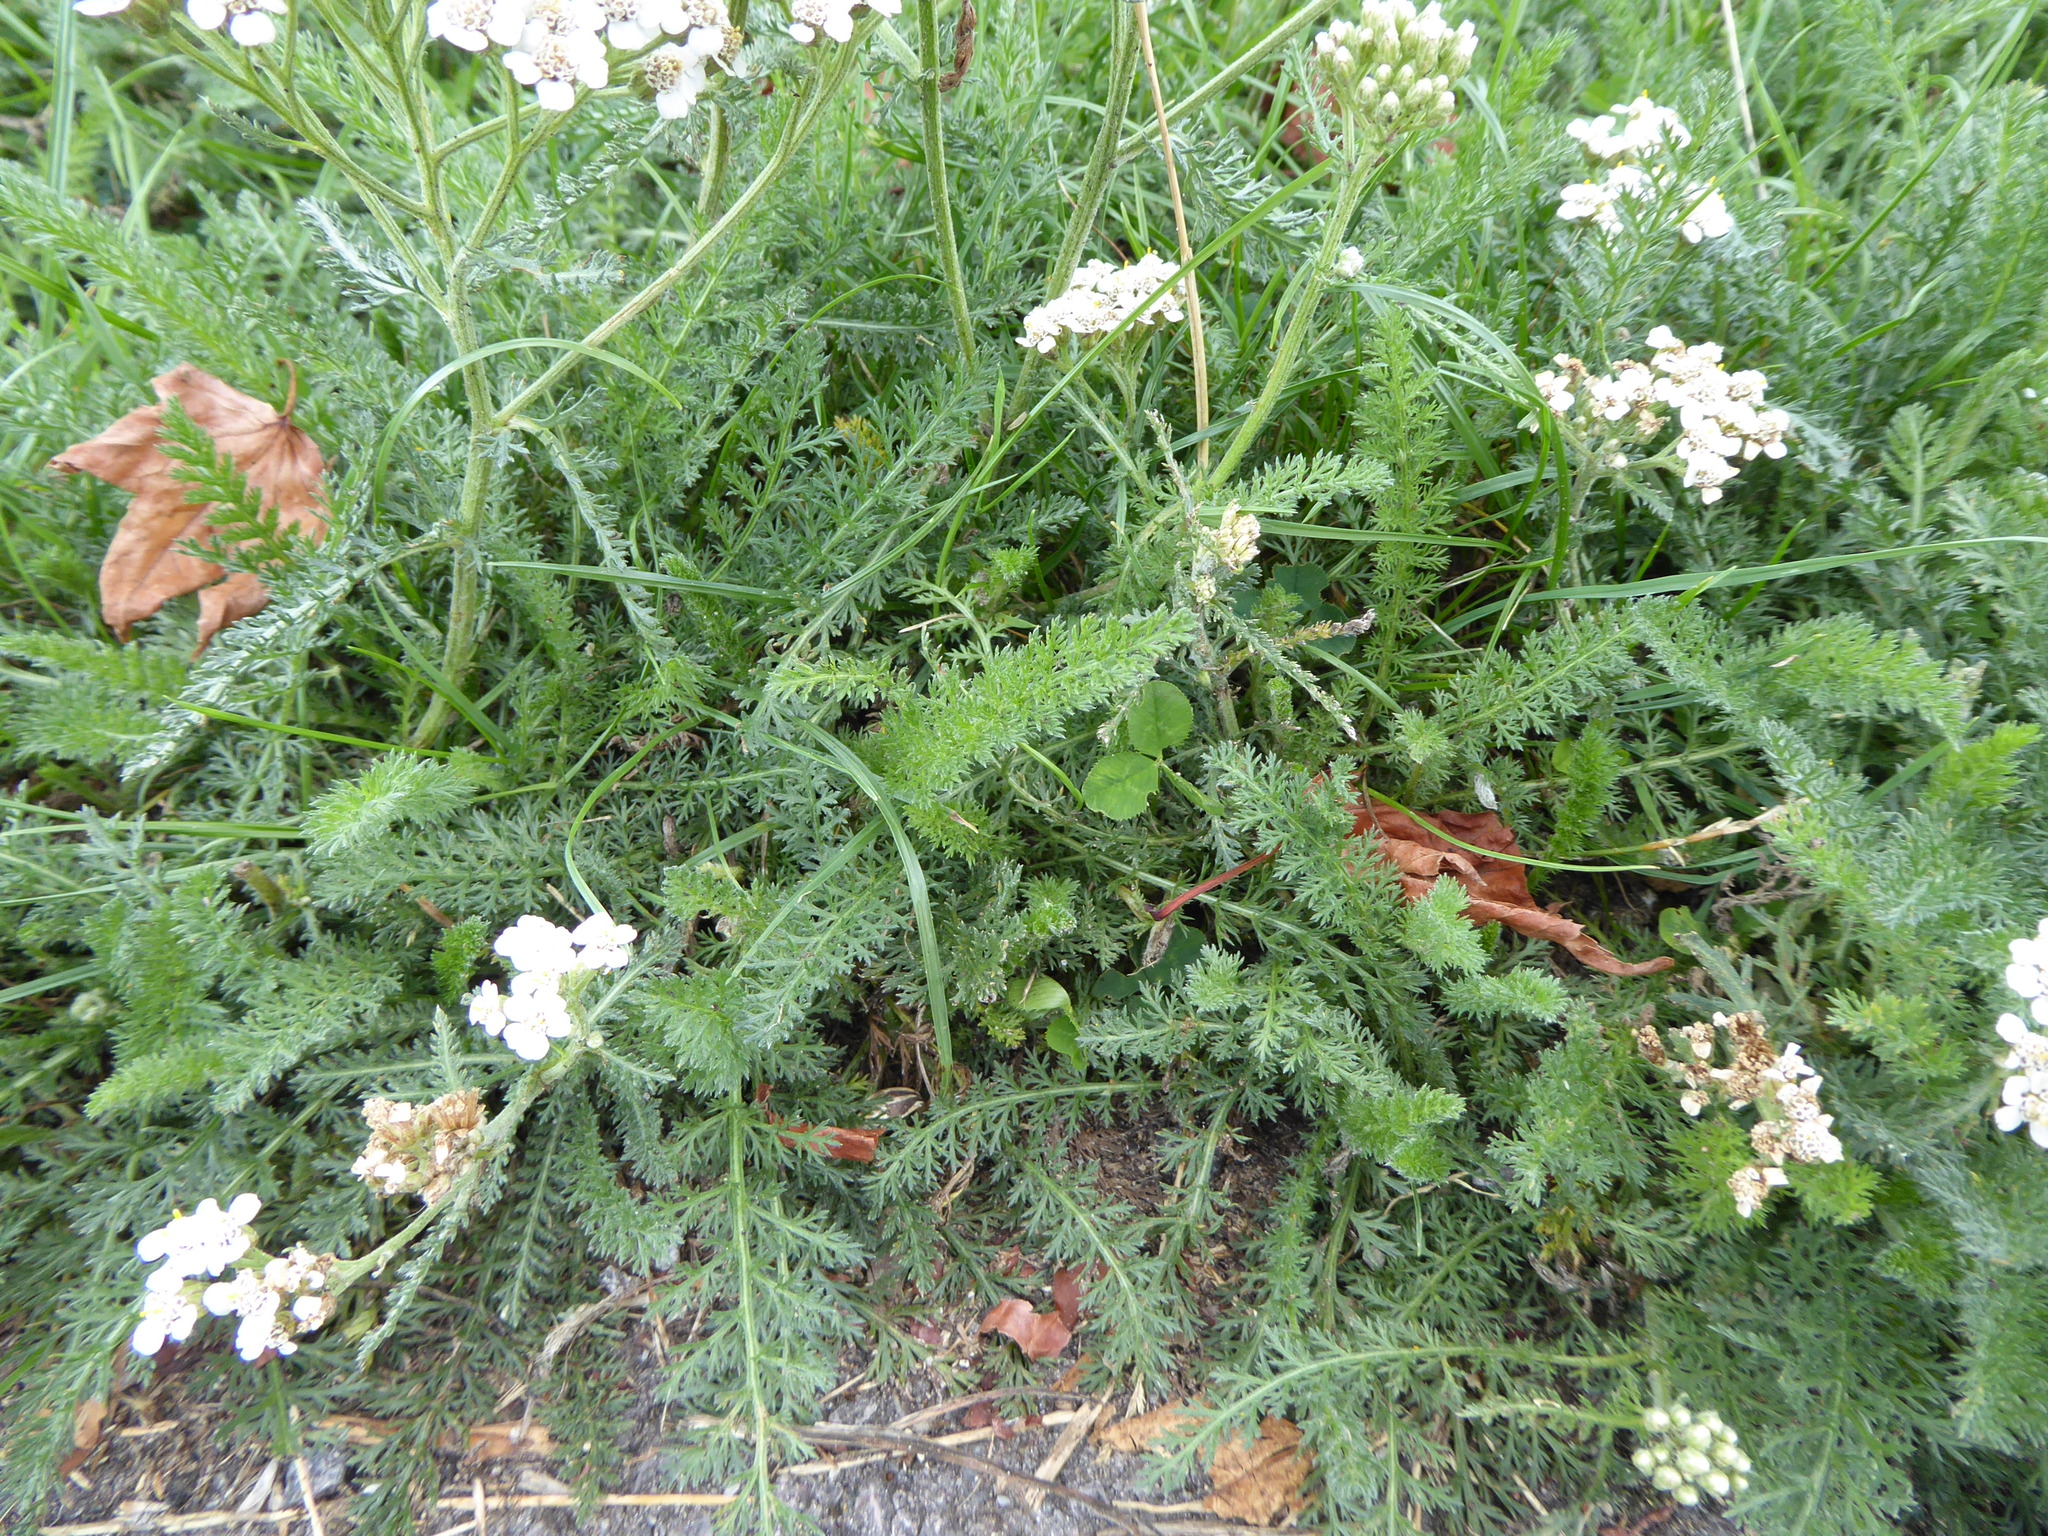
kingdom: Plantae
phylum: Tracheophyta
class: Magnoliopsida
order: Asterales
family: Asteraceae
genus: Achillea
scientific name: Achillea millefolium
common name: Yarrow
